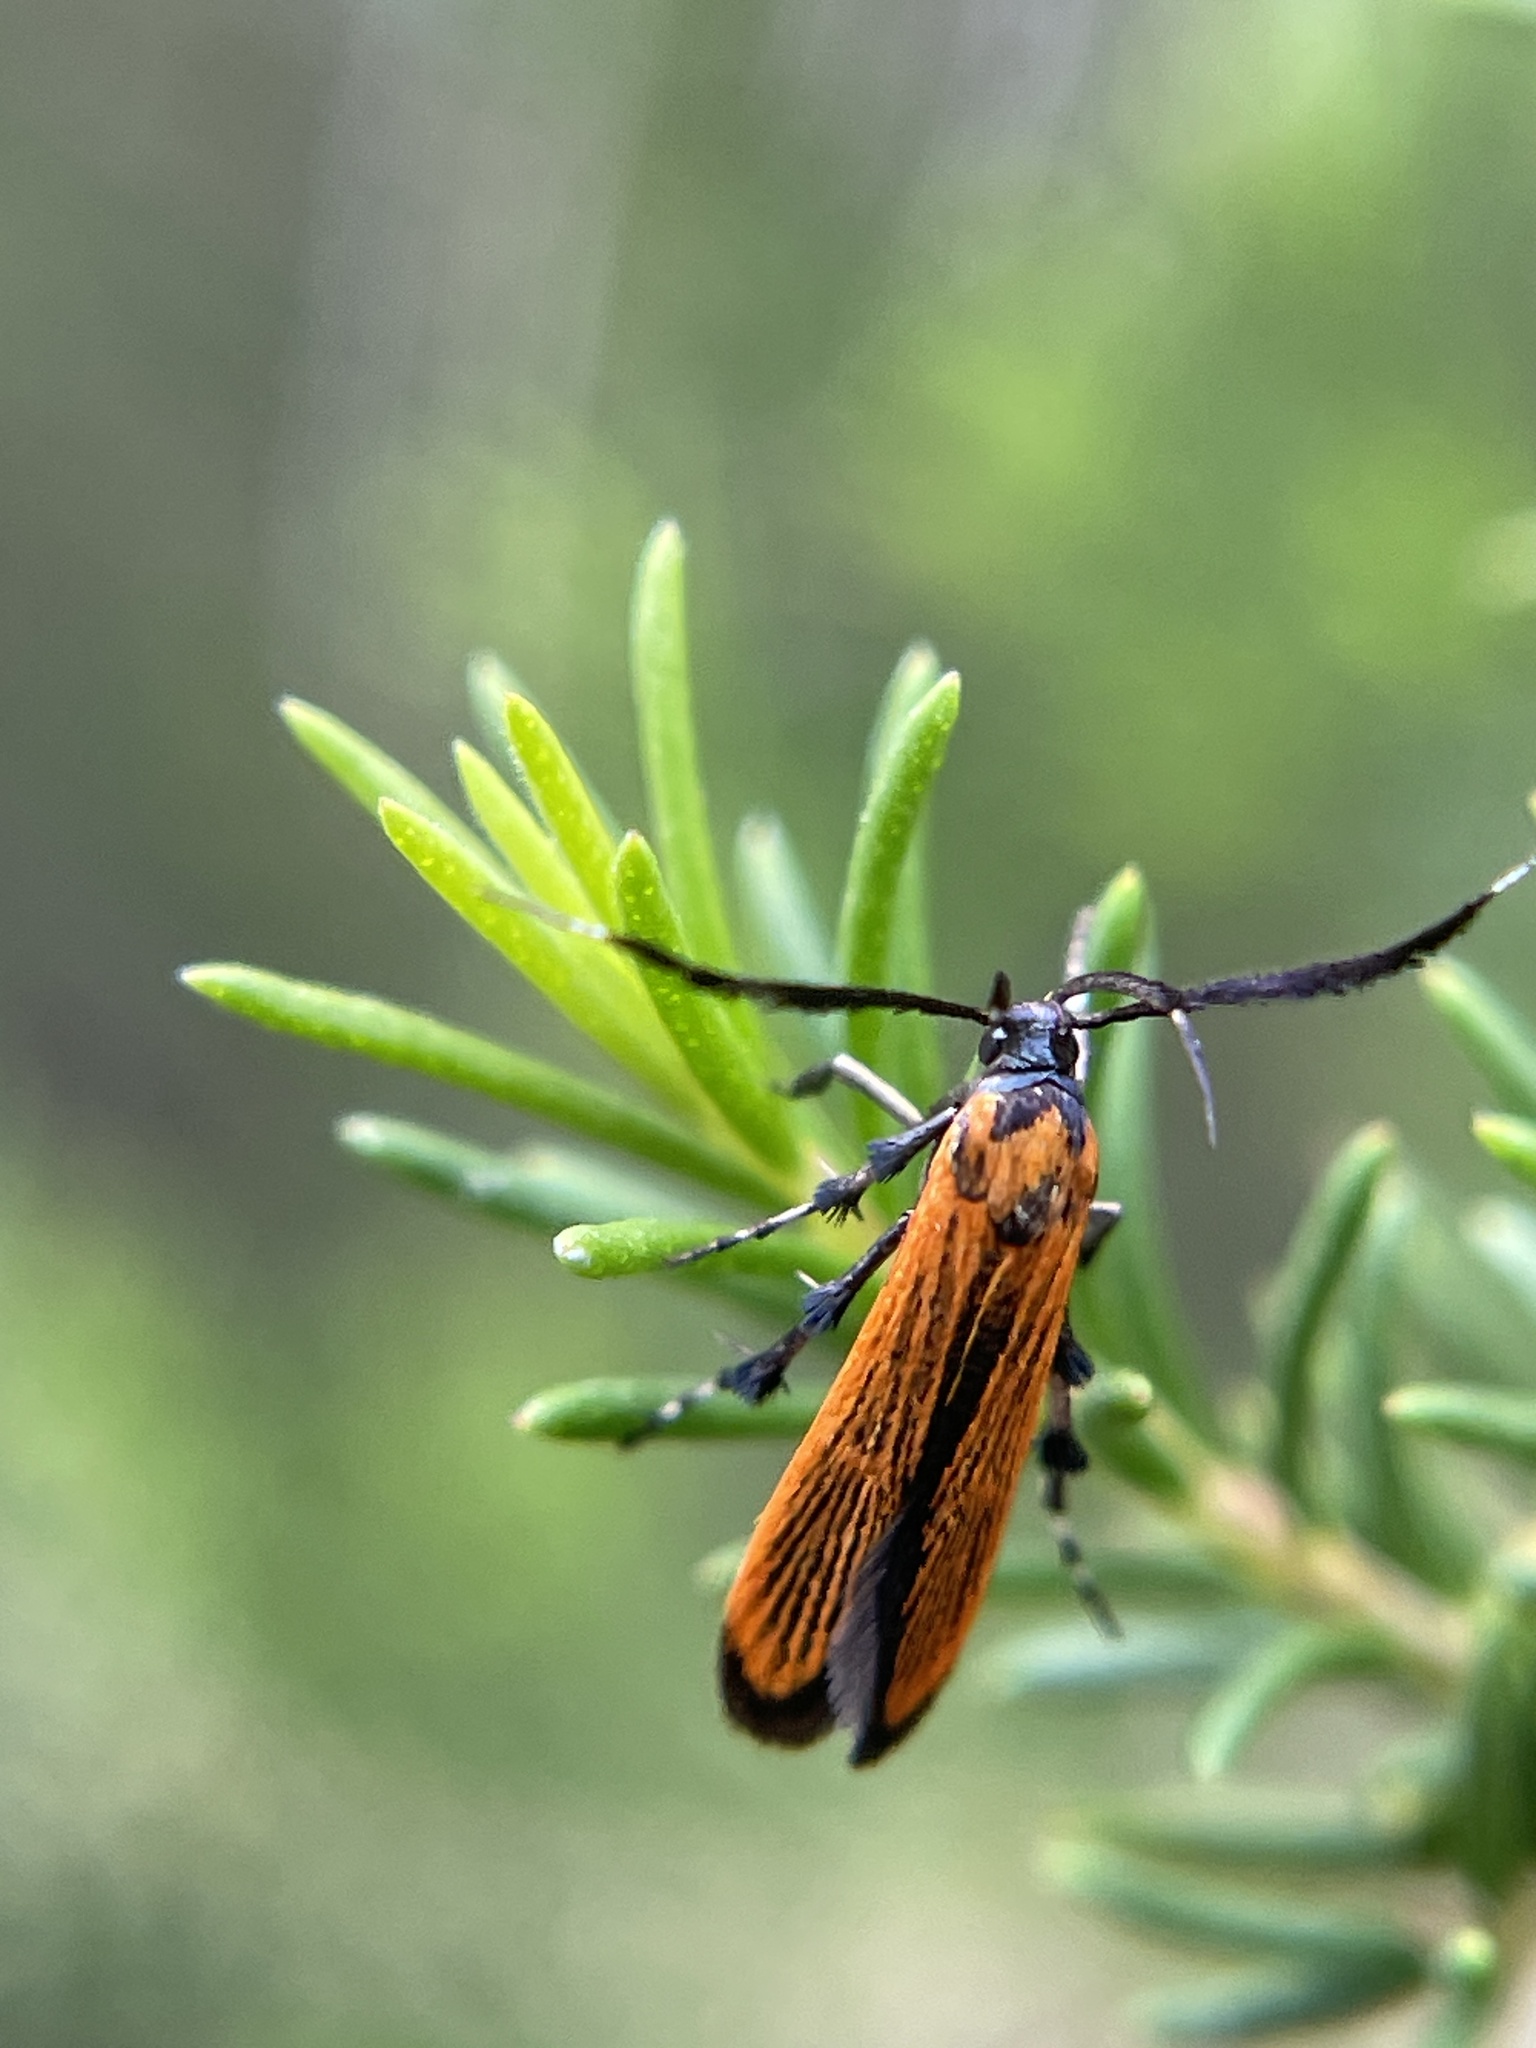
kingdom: Animalia
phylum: Arthropoda
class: Insecta
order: Lepidoptera
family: Stathmopodidae
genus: Snellenia
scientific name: Snellenia lineata
